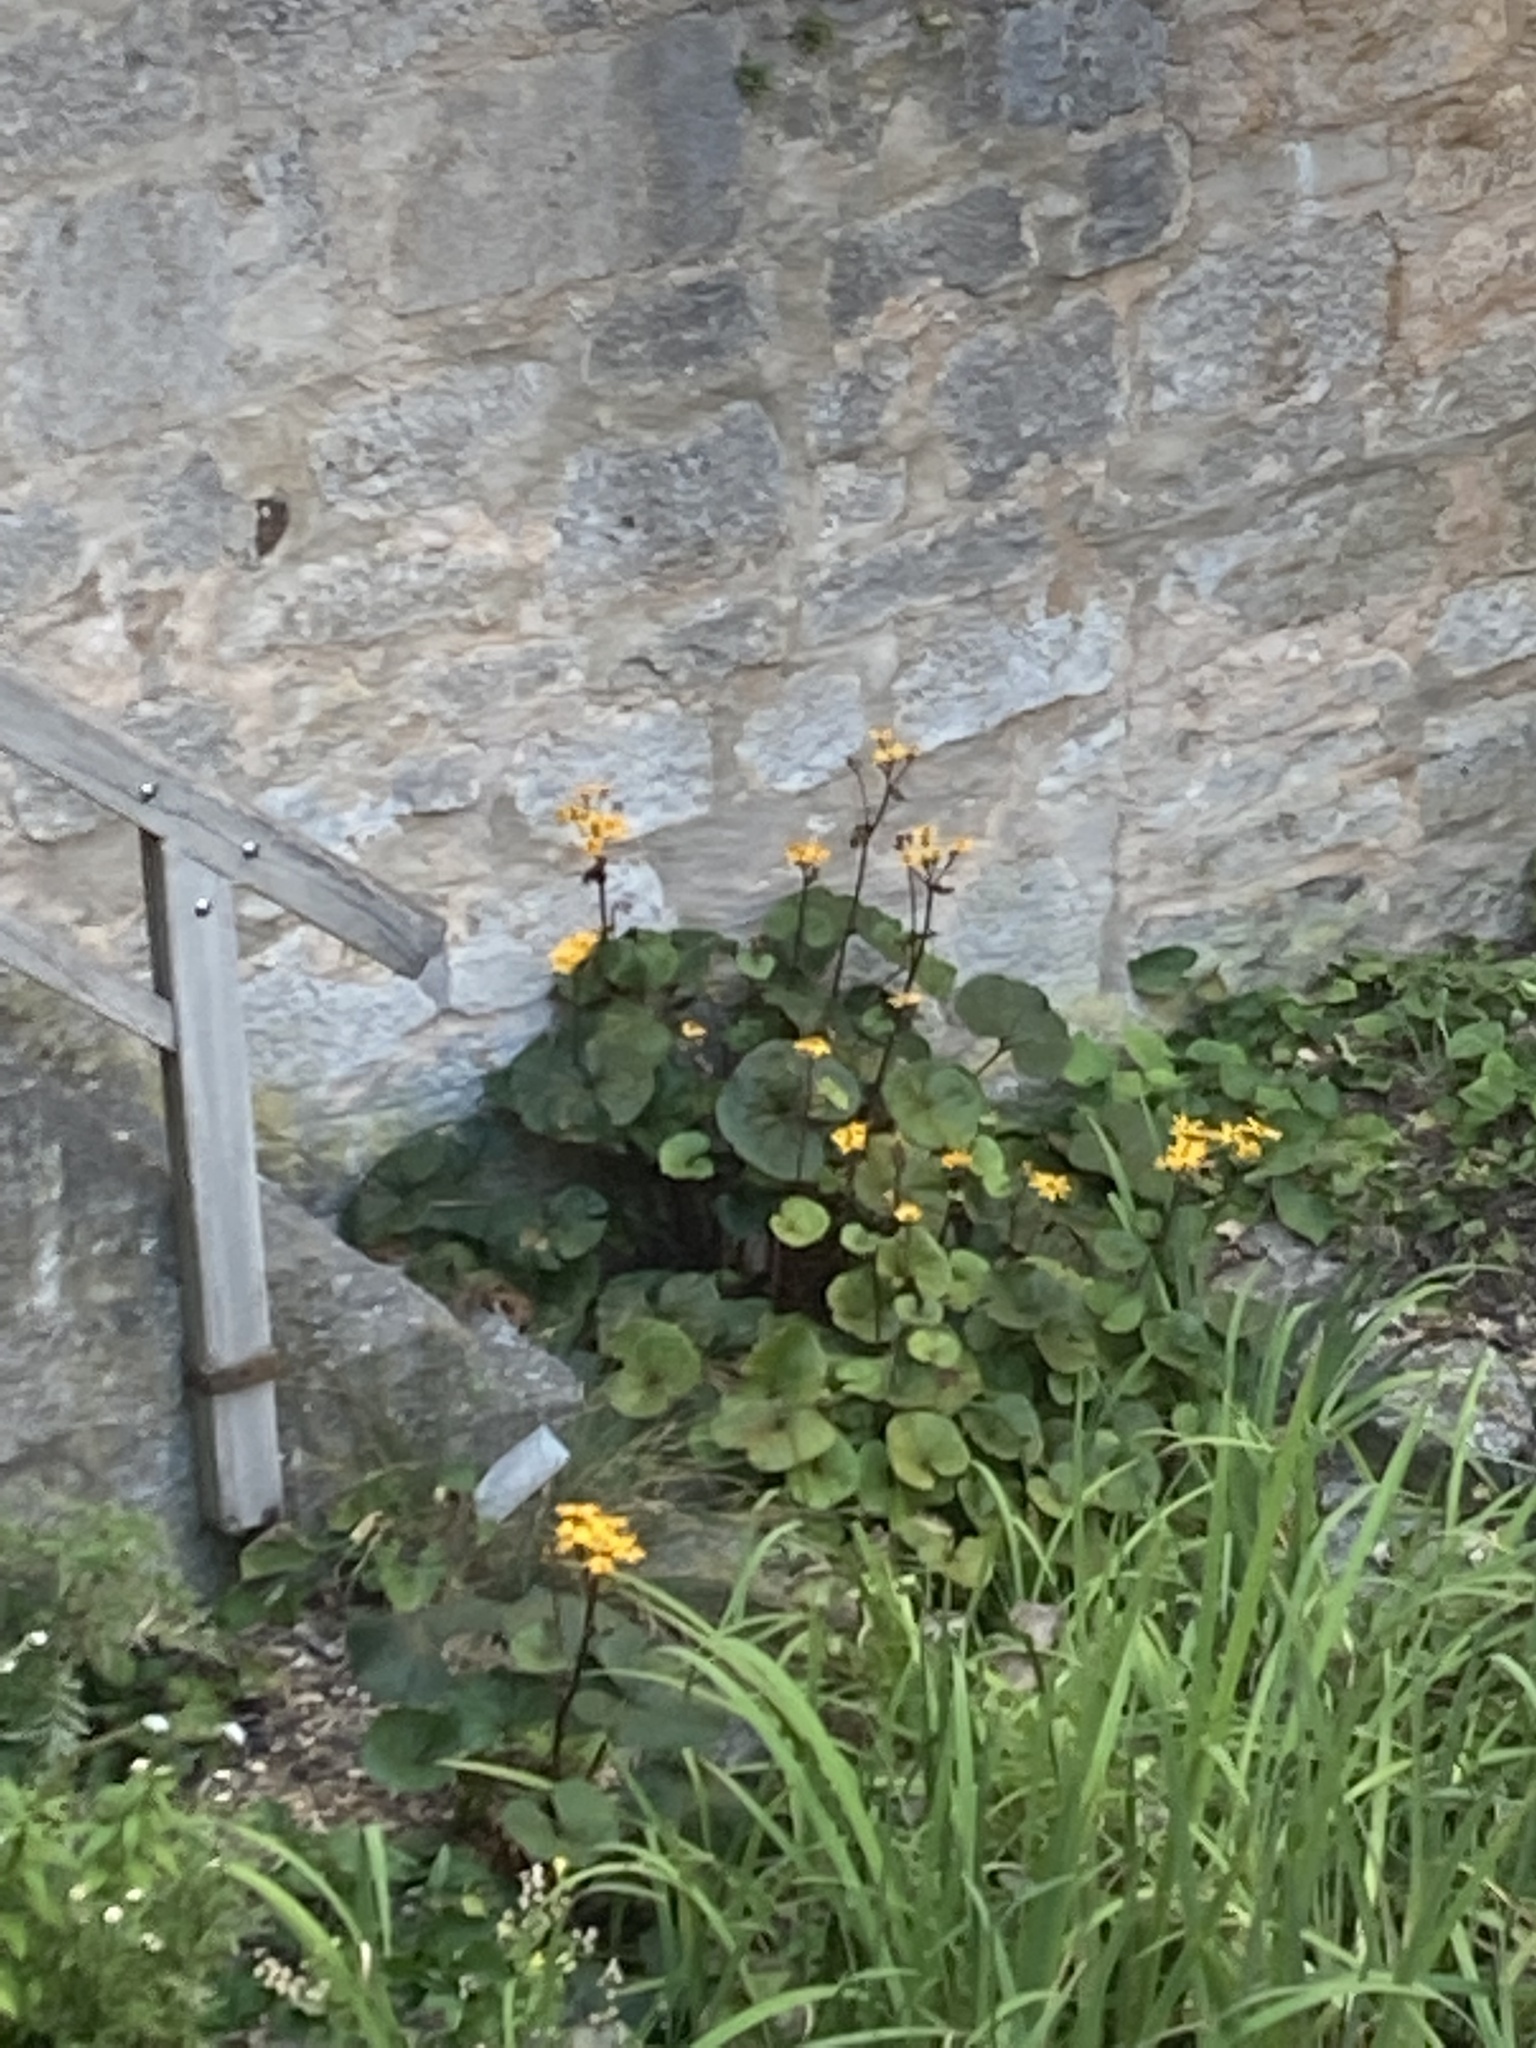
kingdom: Plantae
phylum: Tracheophyta
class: Magnoliopsida
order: Asterales
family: Asteraceae
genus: Ligularia
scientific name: Ligularia dentata
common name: Leopardplant
